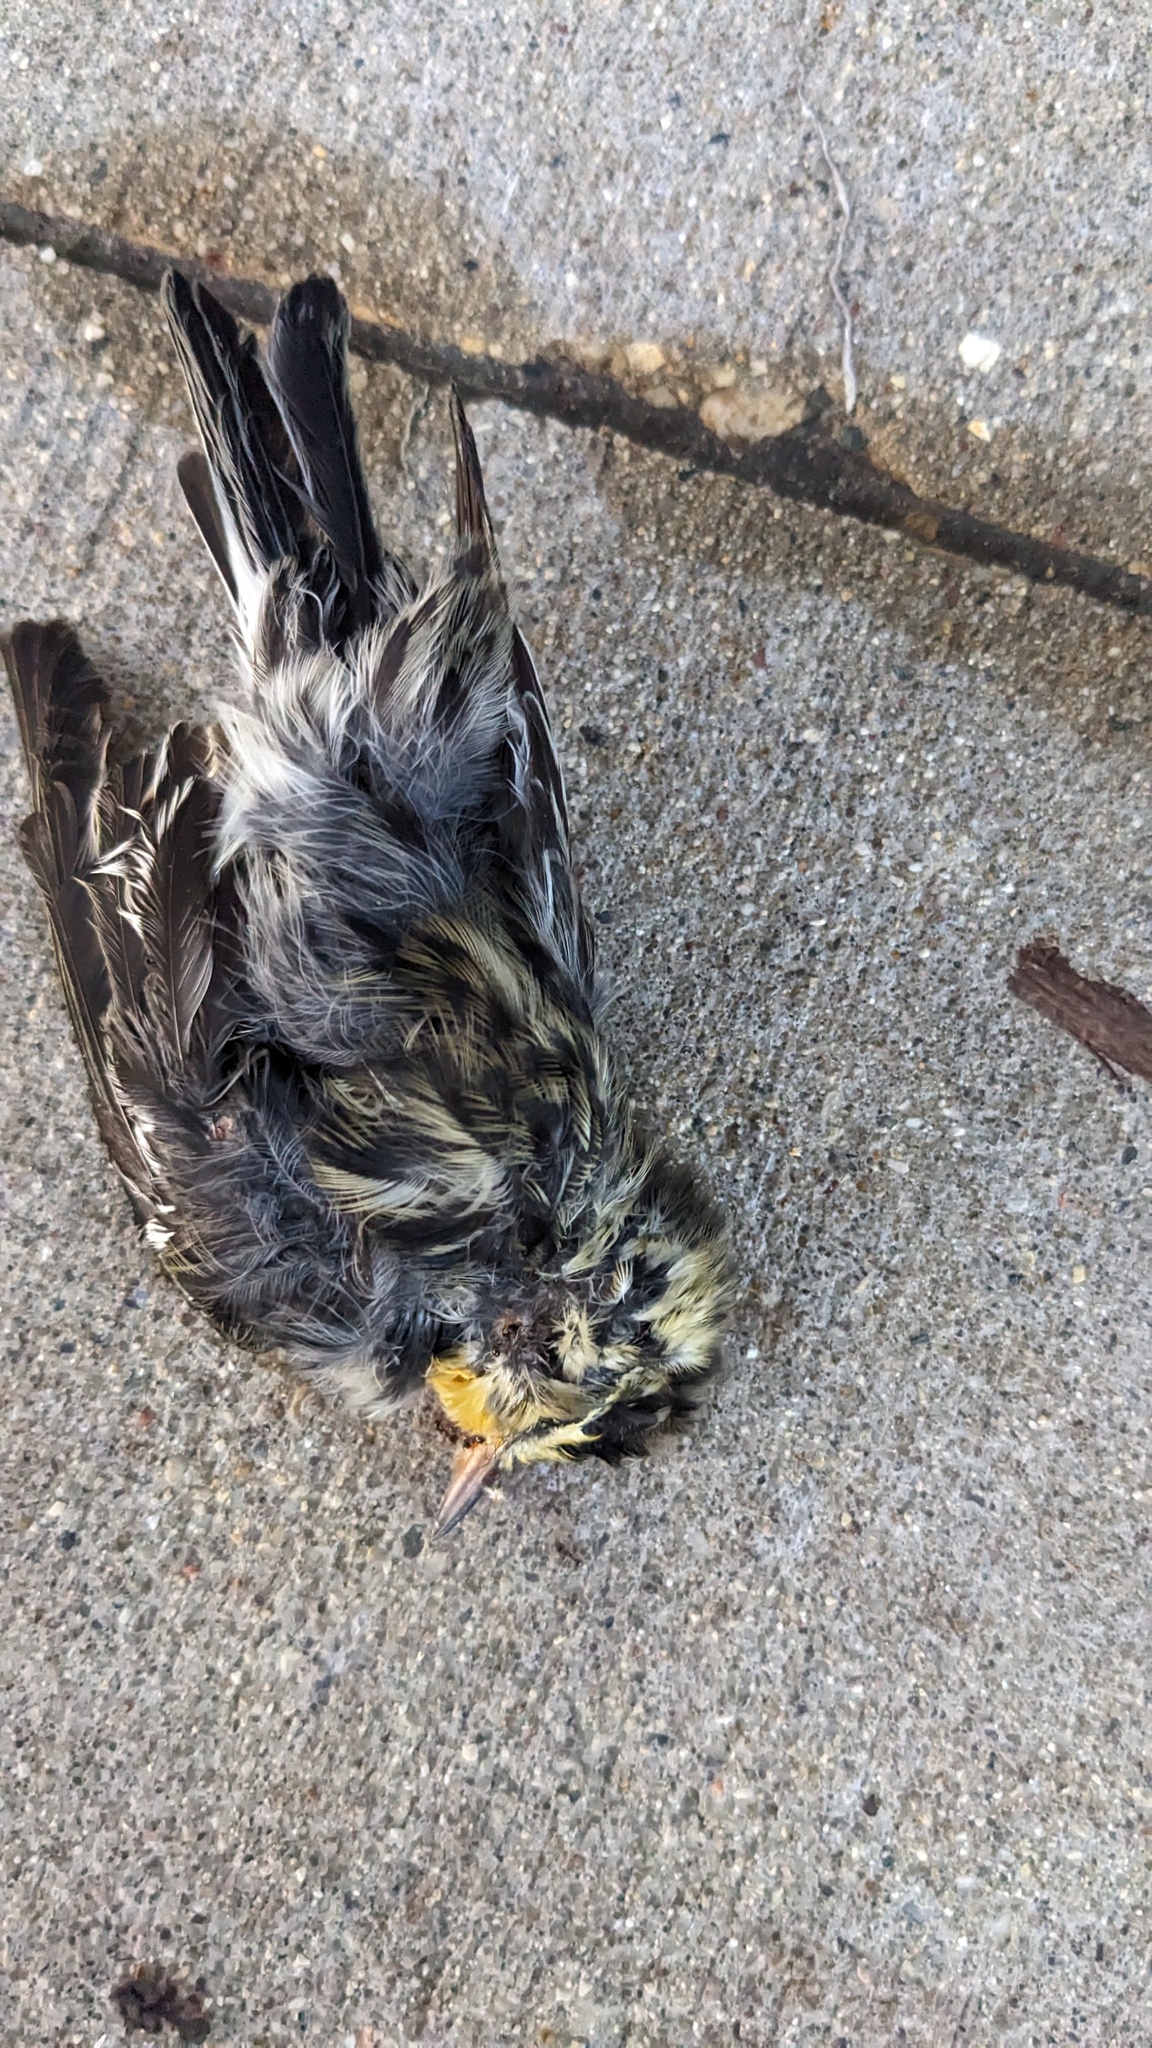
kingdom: Animalia
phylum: Chordata
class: Aves
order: Passeriformes
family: Parulidae
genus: Setophaga
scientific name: Setophaga fusca
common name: Blackburnian warbler
